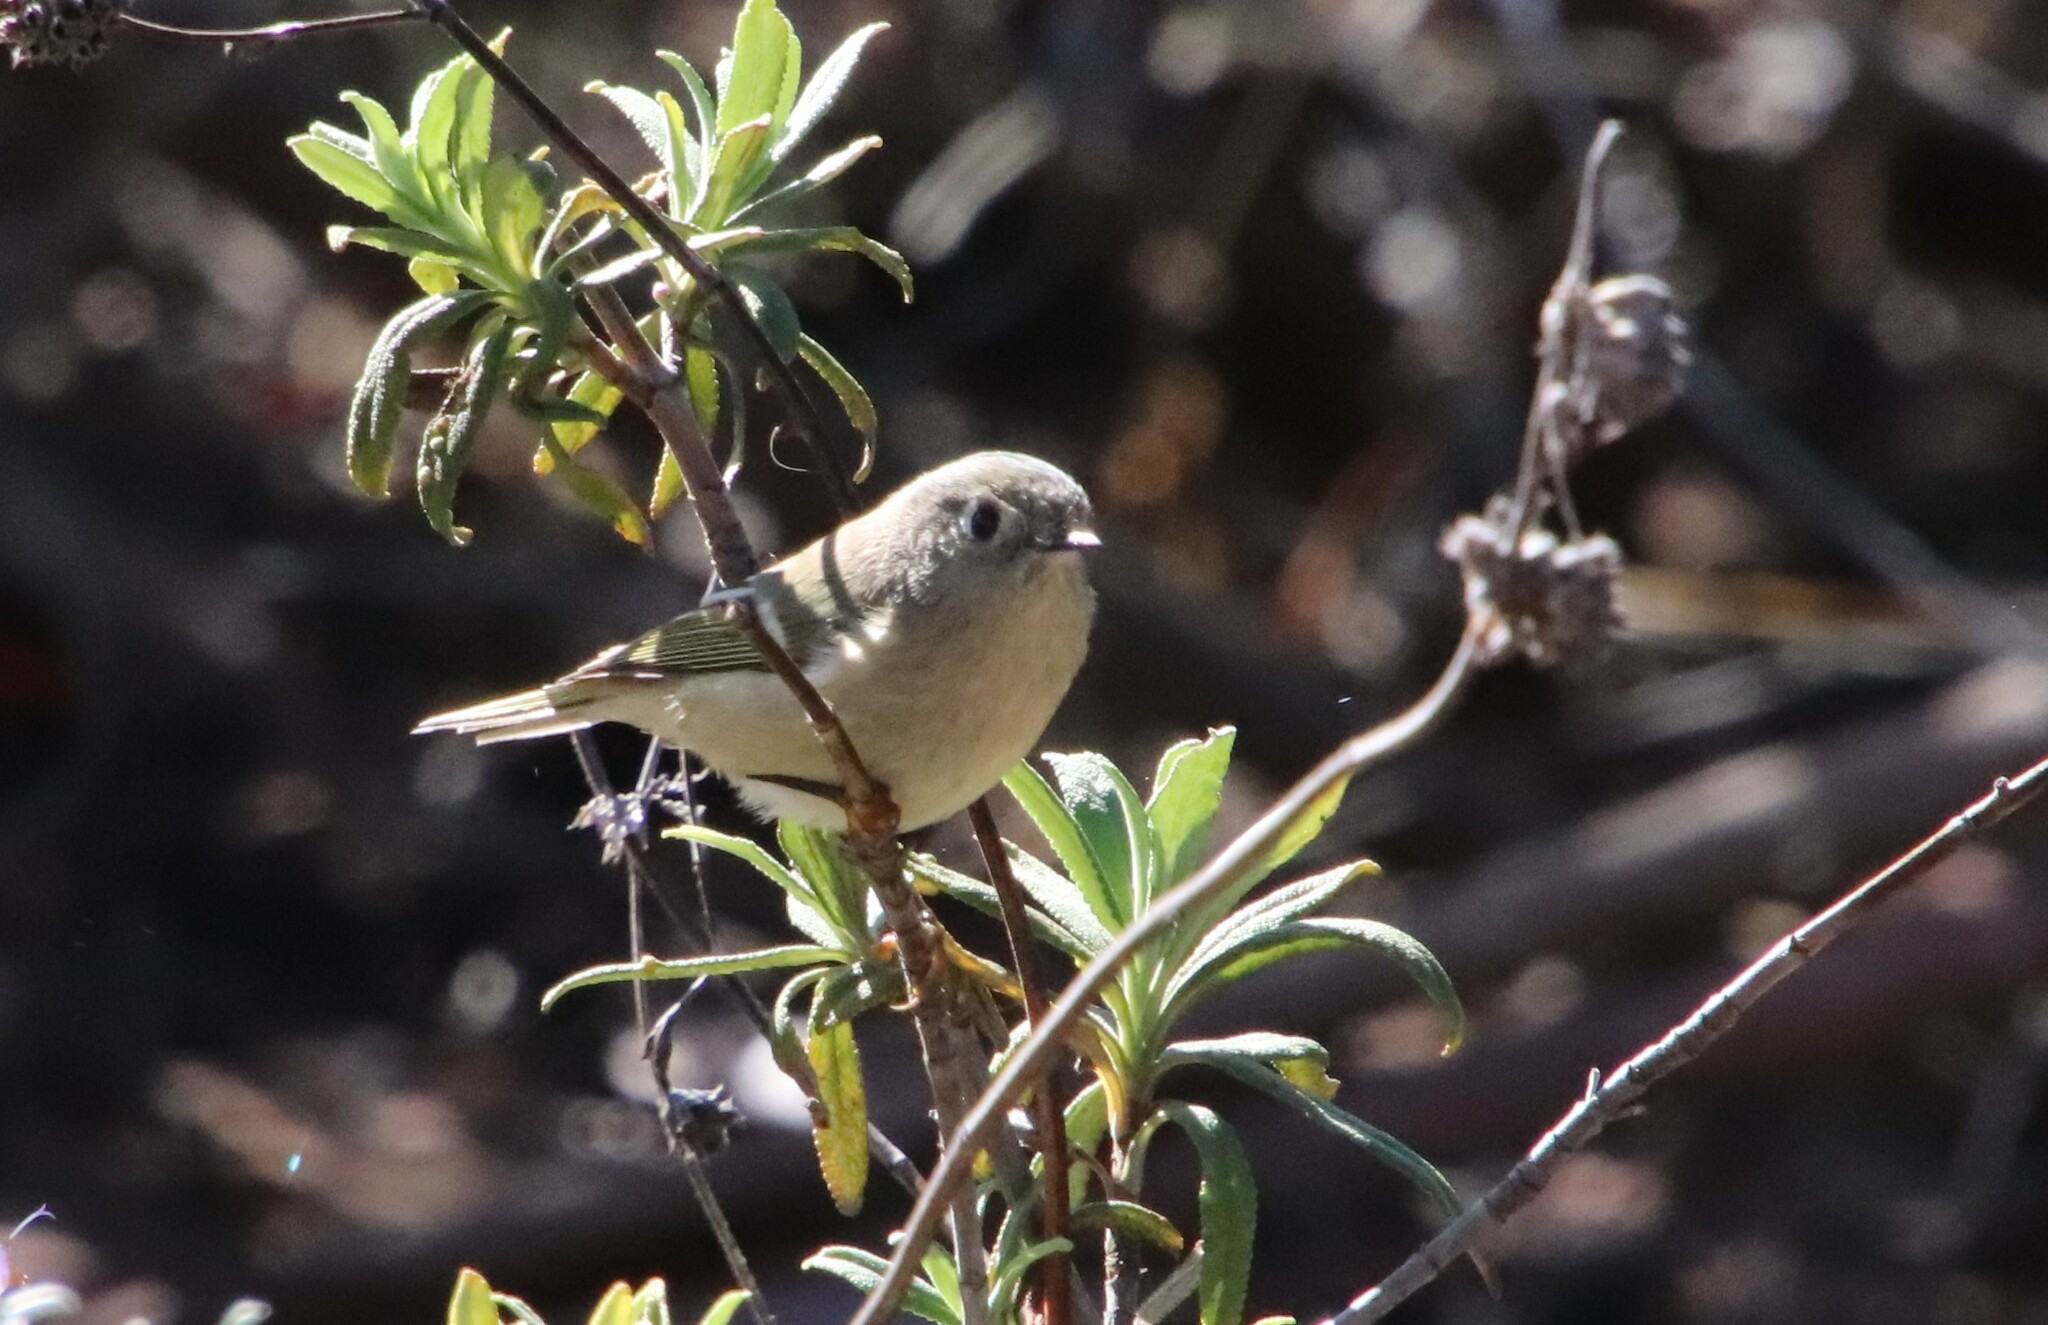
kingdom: Animalia
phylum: Chordata
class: Aves
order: Passeriformes
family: Regulidae
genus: Regulus
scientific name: Regulus calendula
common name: Ruby-crowned kinglet
